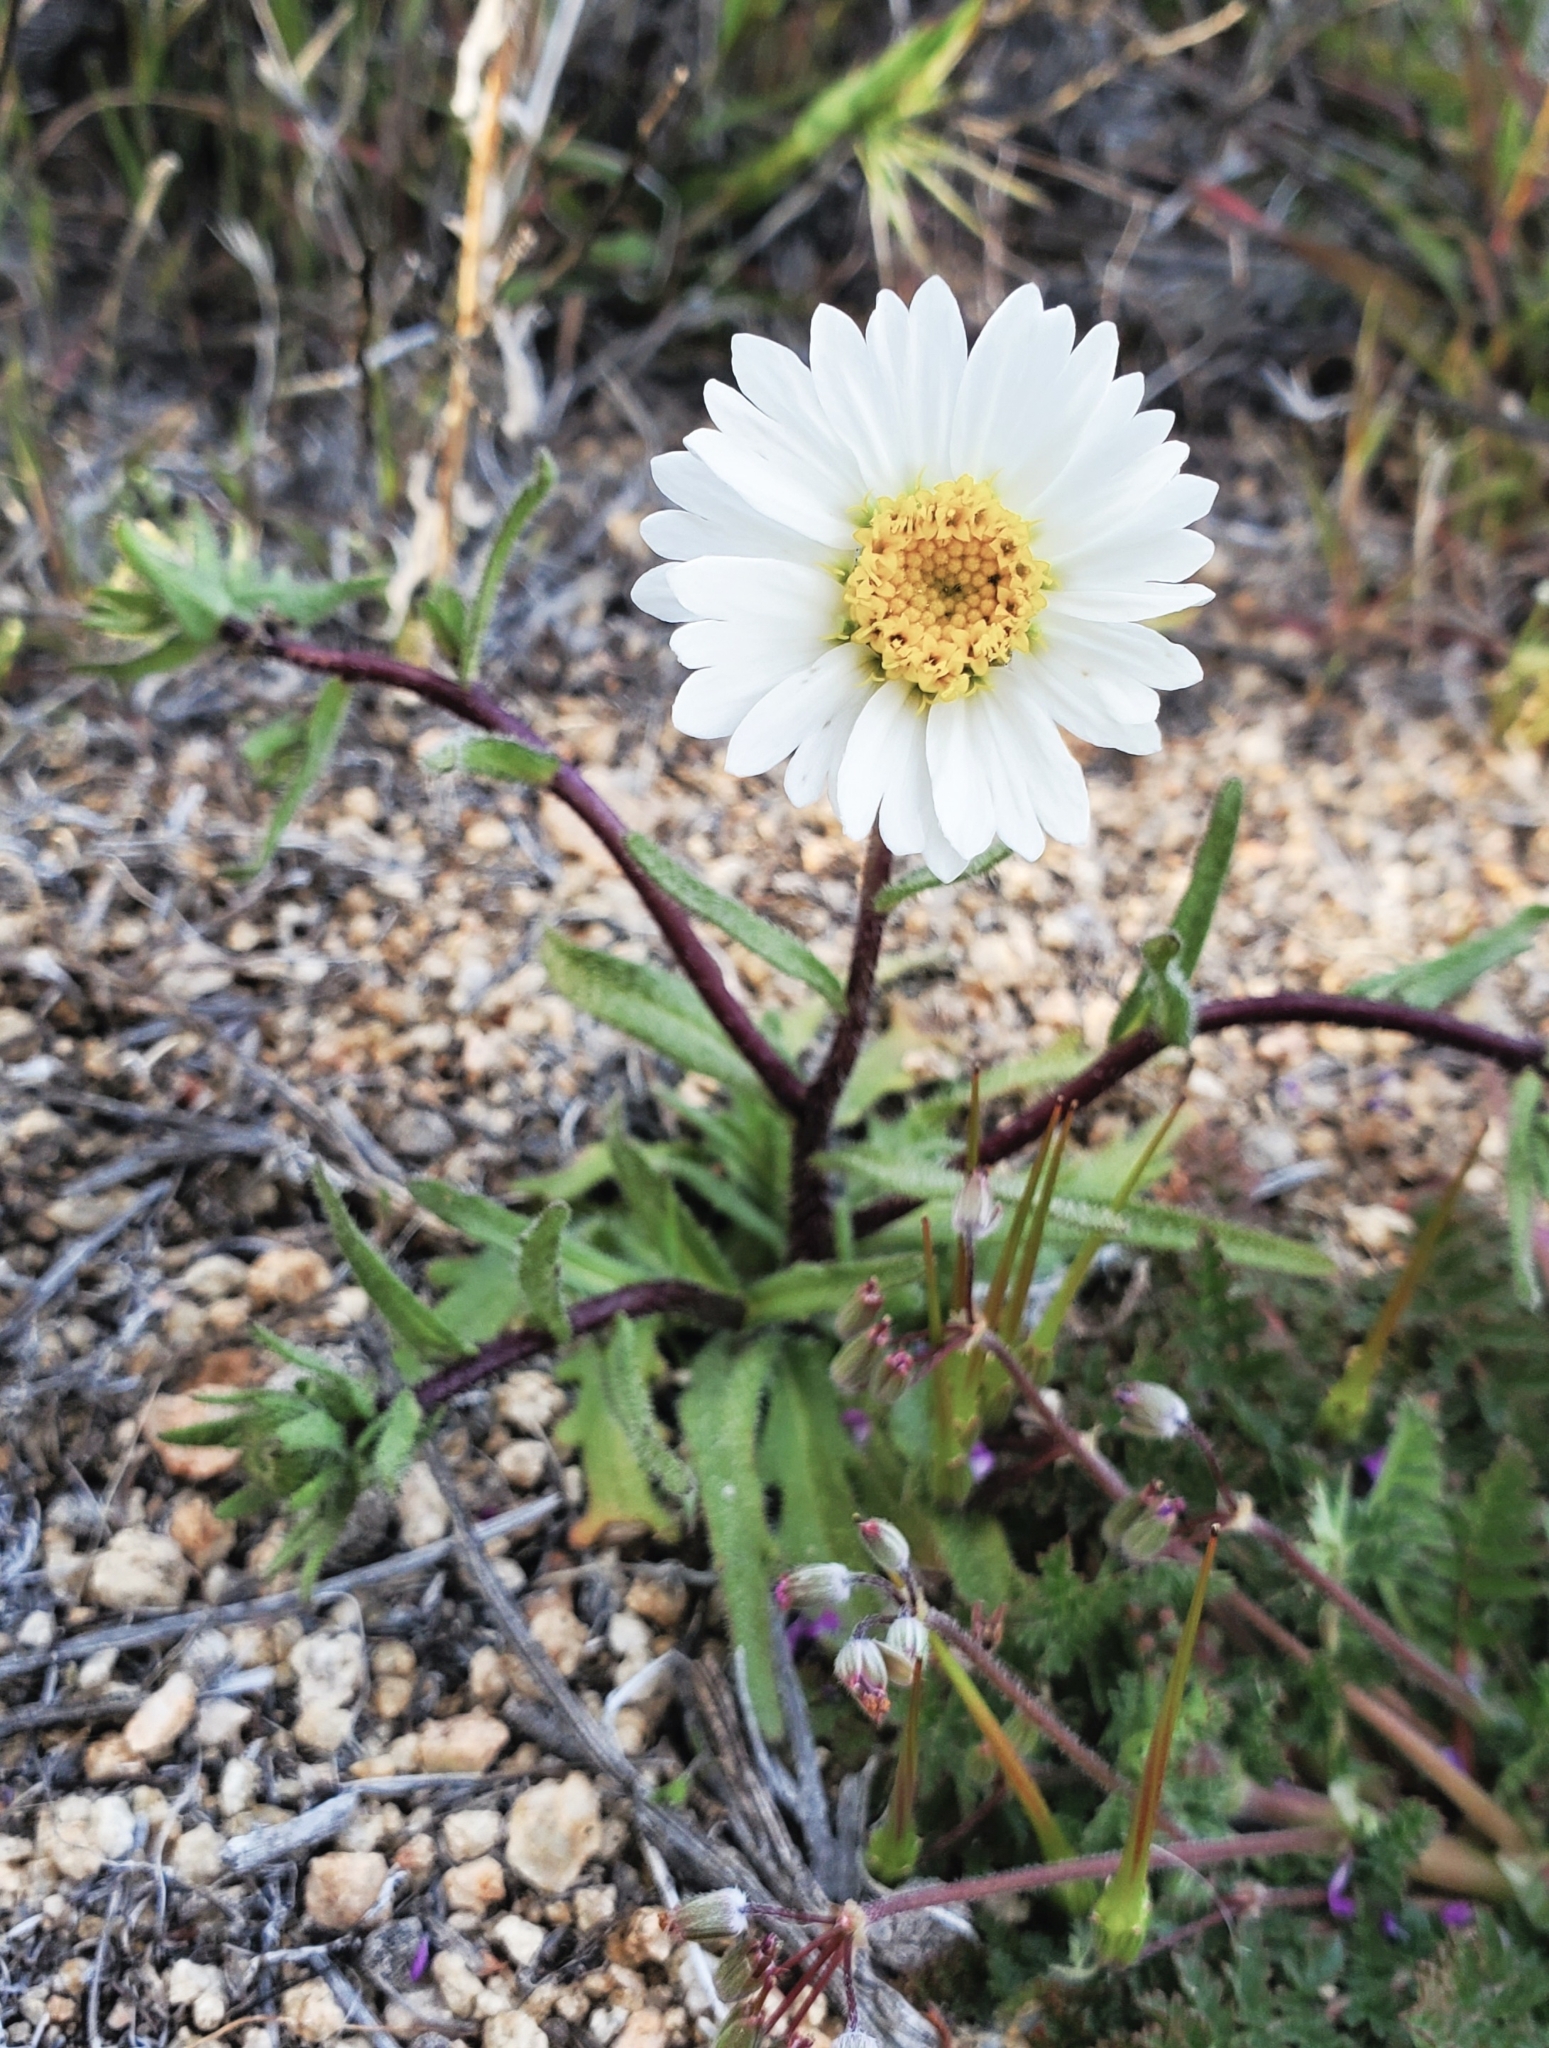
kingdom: Plantae
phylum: Tracheophyta
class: Magnoliopsida
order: Asterales
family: Asteraceae
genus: Layia
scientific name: Layia glandulosa
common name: White layia
